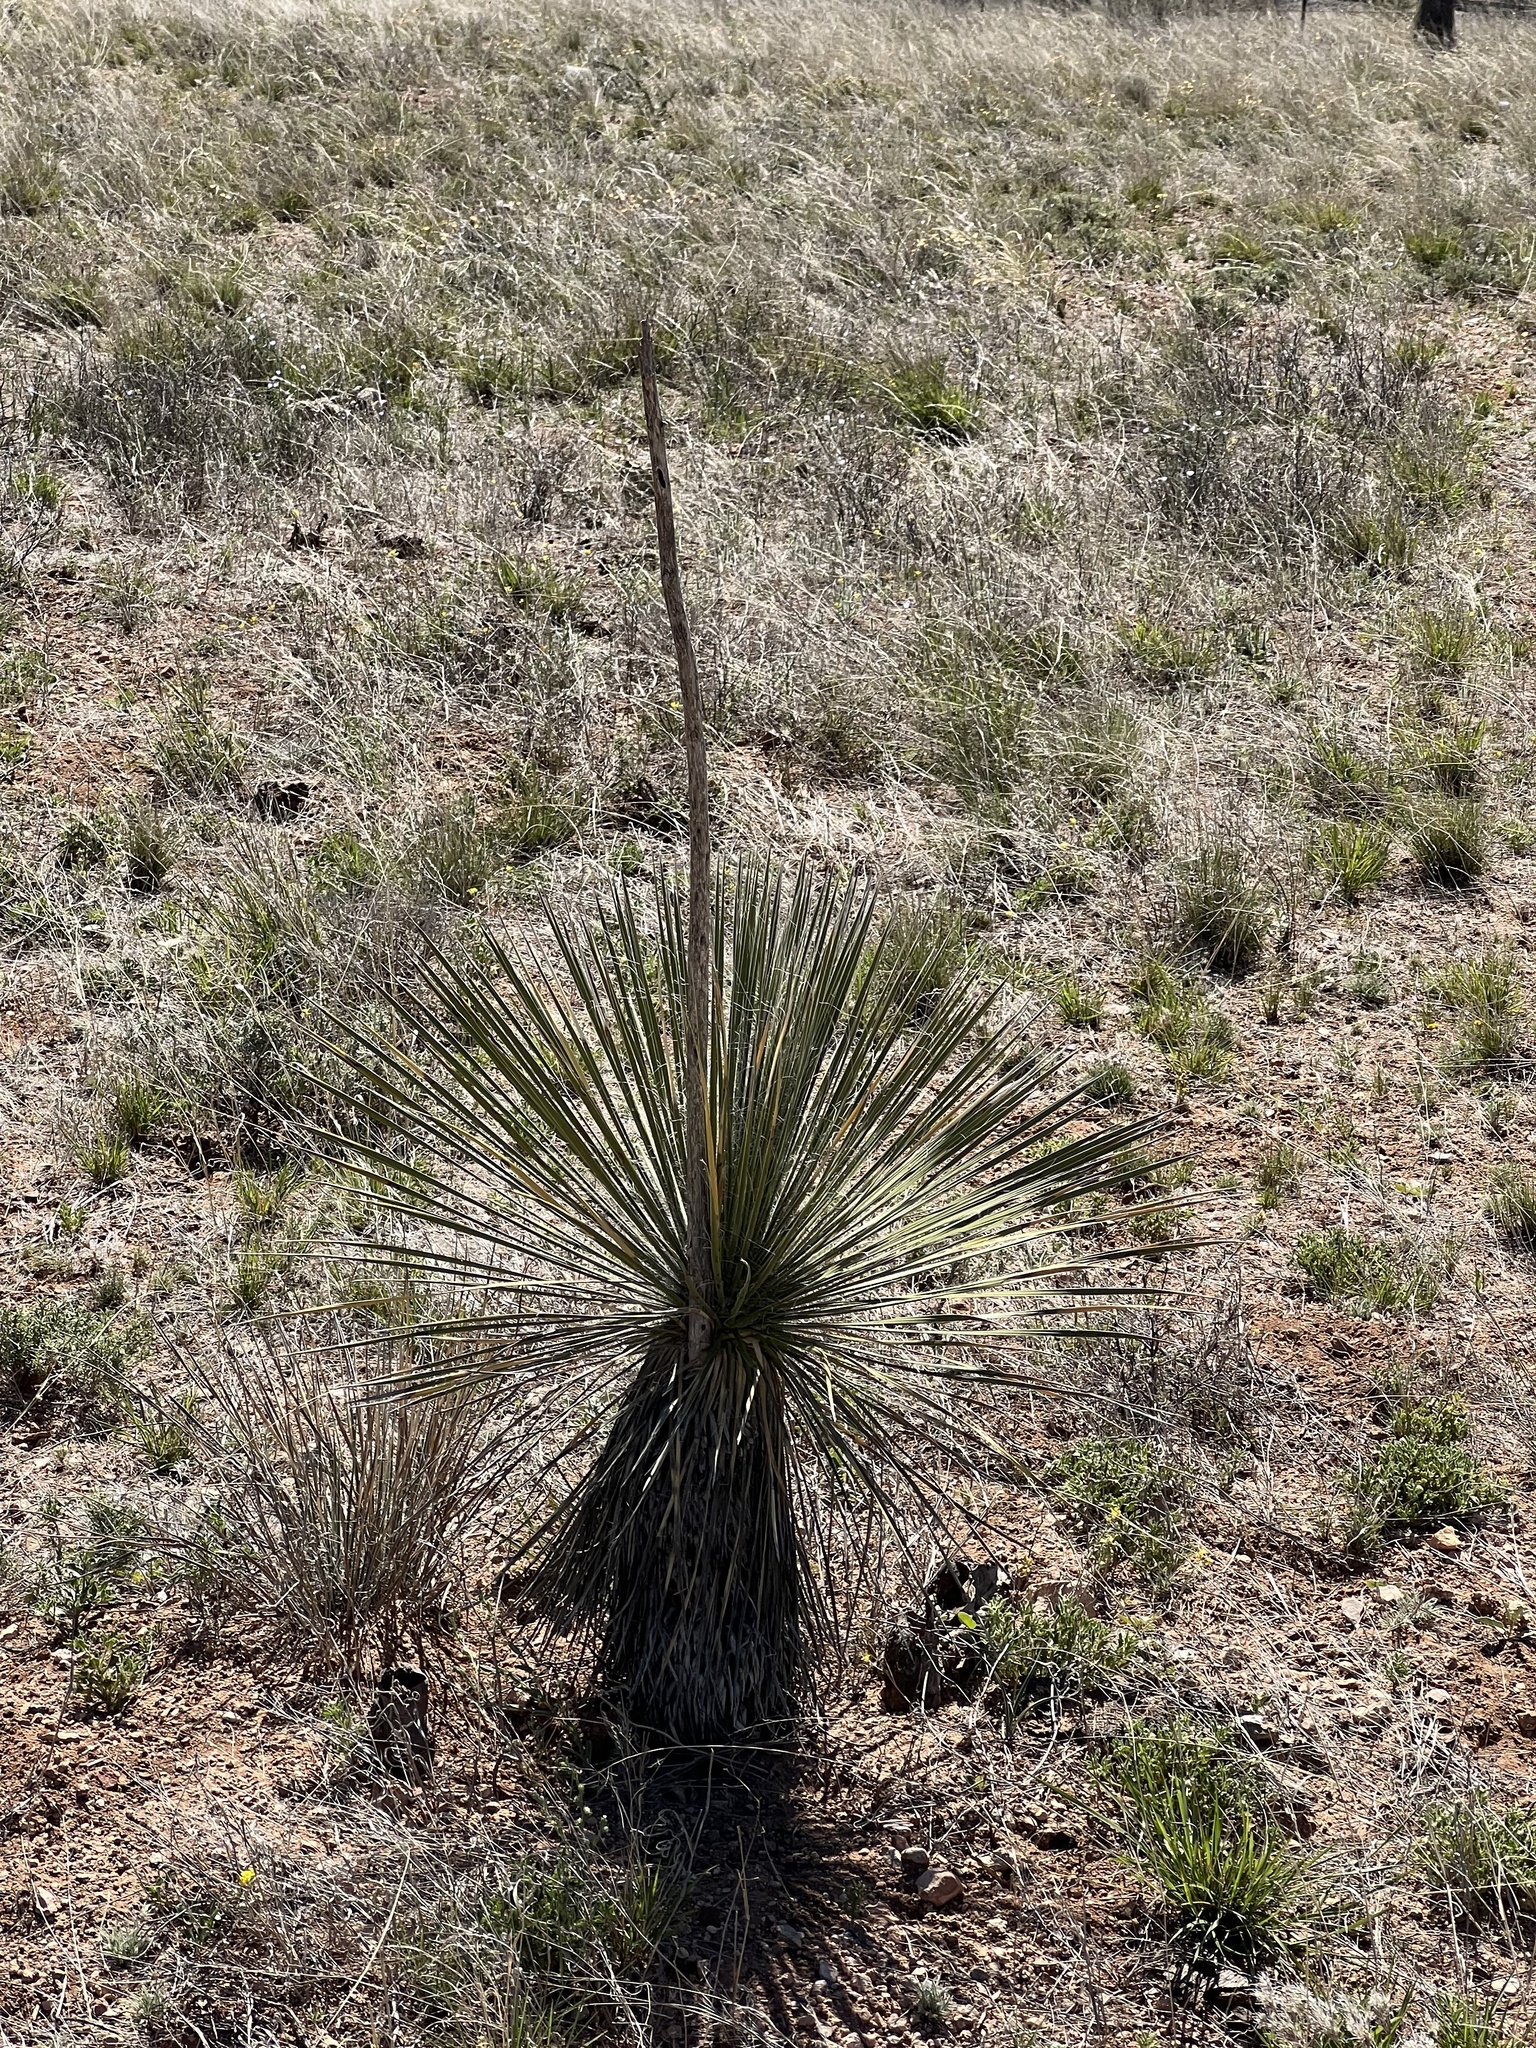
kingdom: Plantae
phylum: Tracheophyta
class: Liliopsida
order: Asparagales
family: Asparagaceae
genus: Yucca
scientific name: Yucca elata
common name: Palmella
